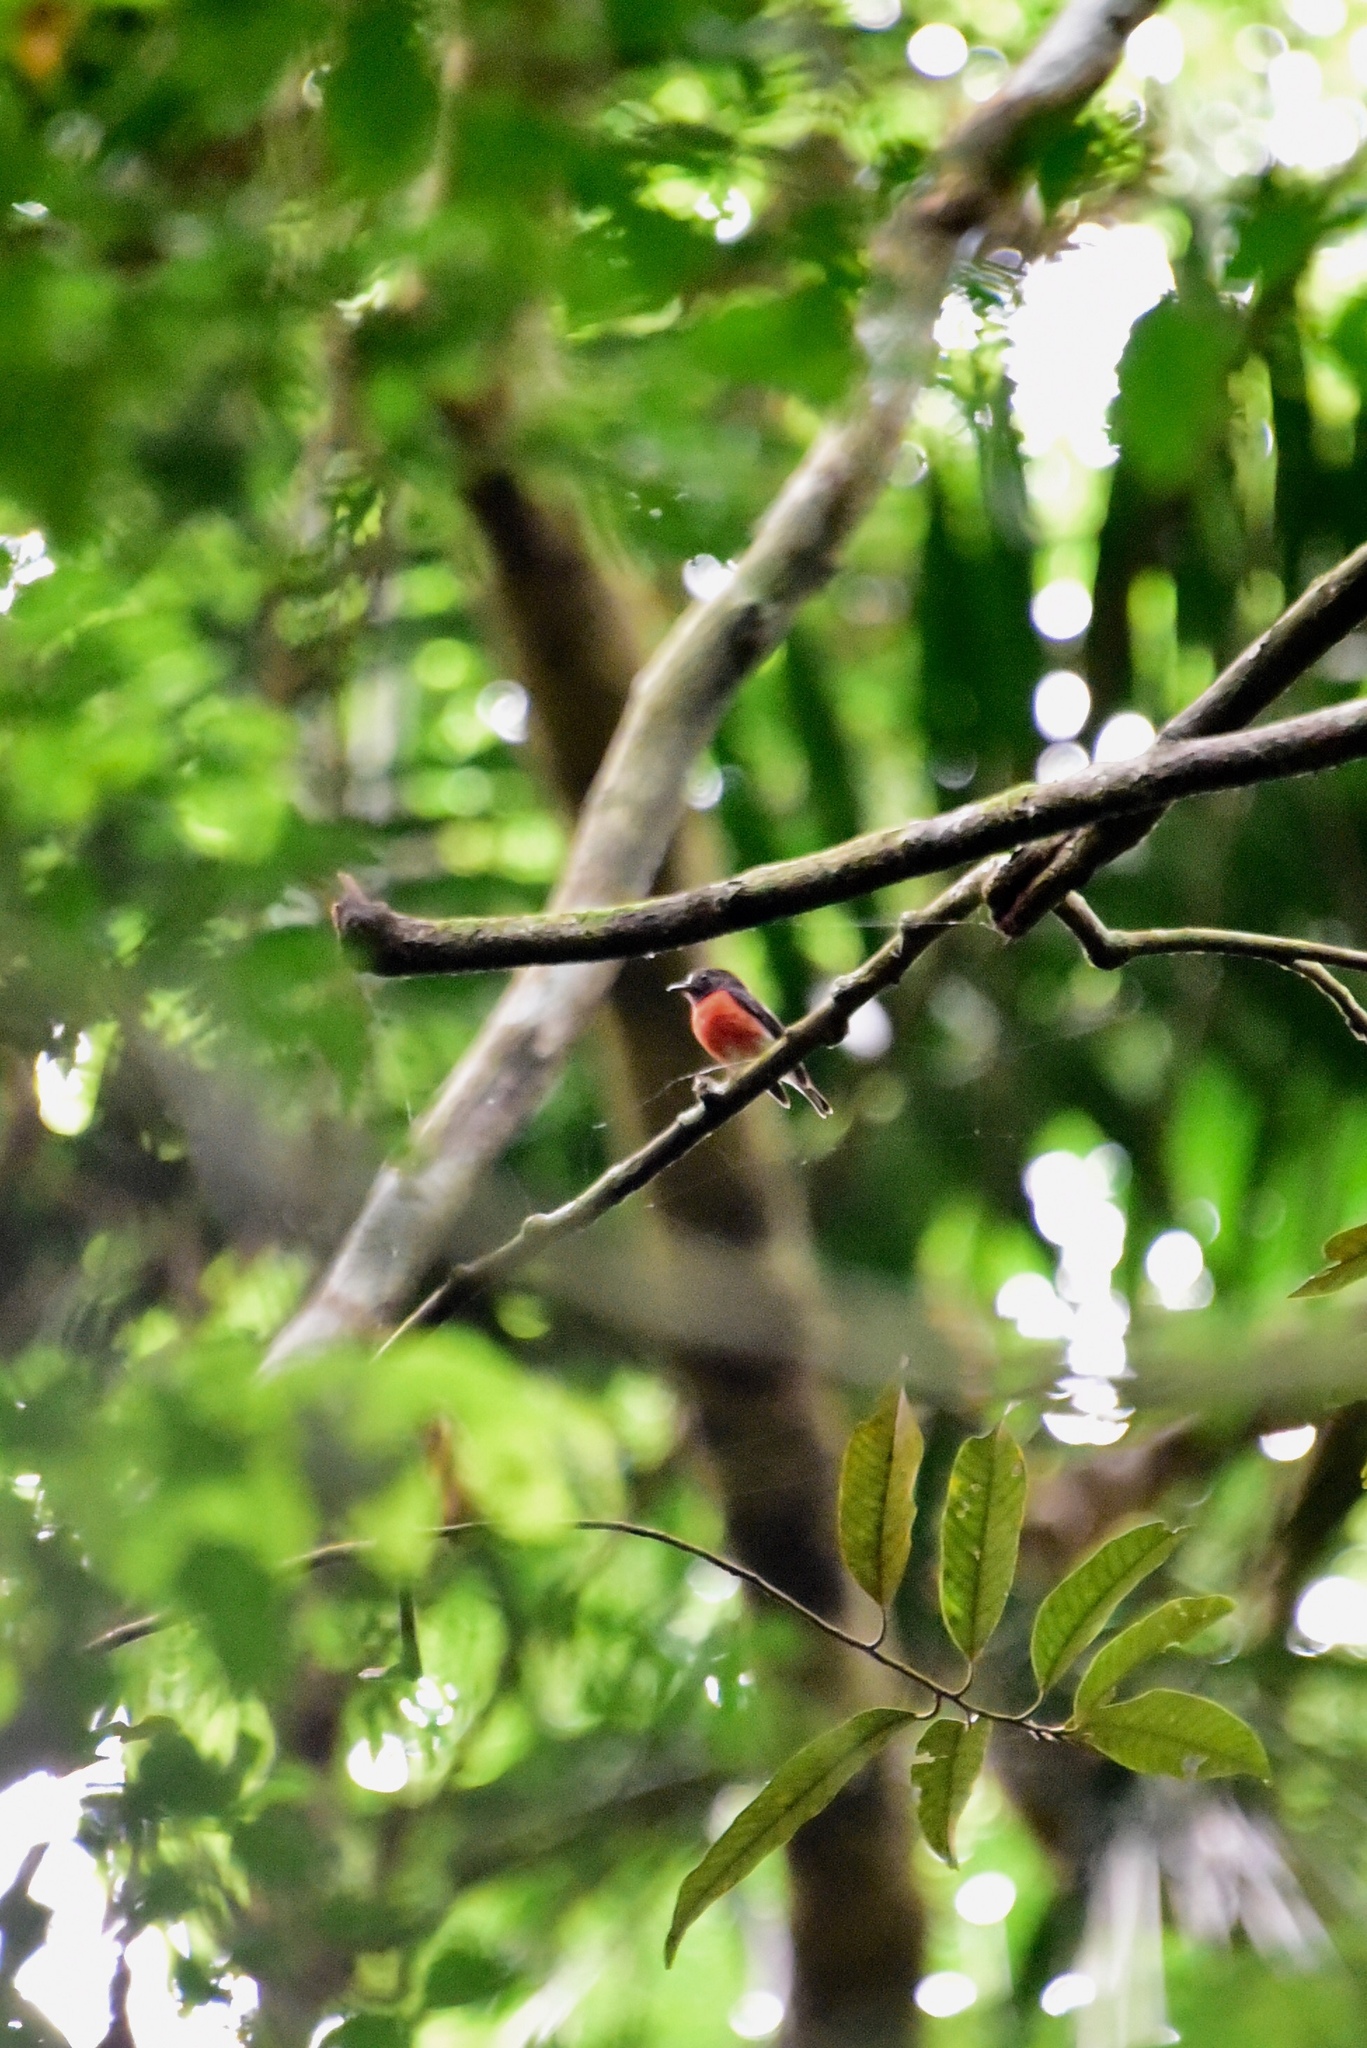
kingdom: Animalia
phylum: Chordata
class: Aves
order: Passeriformes
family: Petroicidae
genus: Petroica
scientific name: Petroica pusilla
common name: Pacific robin
